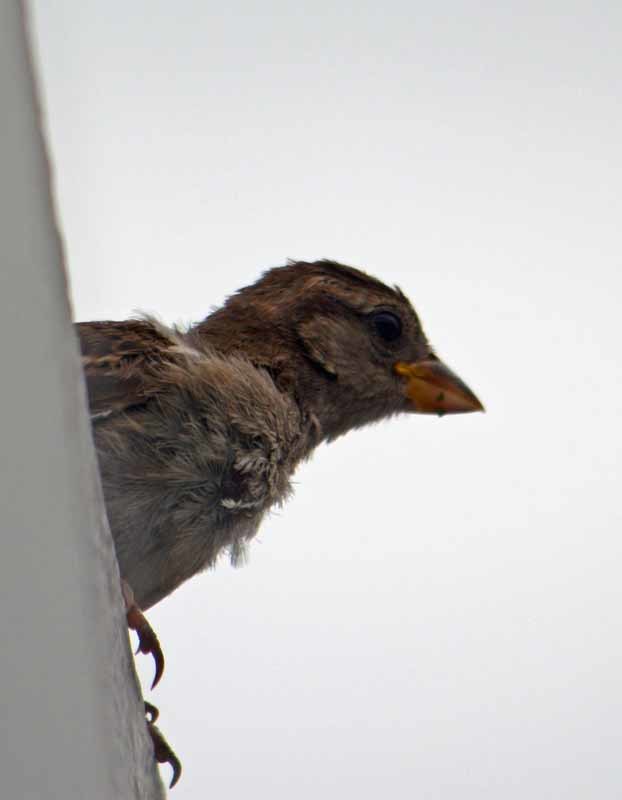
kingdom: Animalia
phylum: Chordata
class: Aves
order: Passeriformes
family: Passeridae
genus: Passer
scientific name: Passer domesticus
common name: House sparrow
